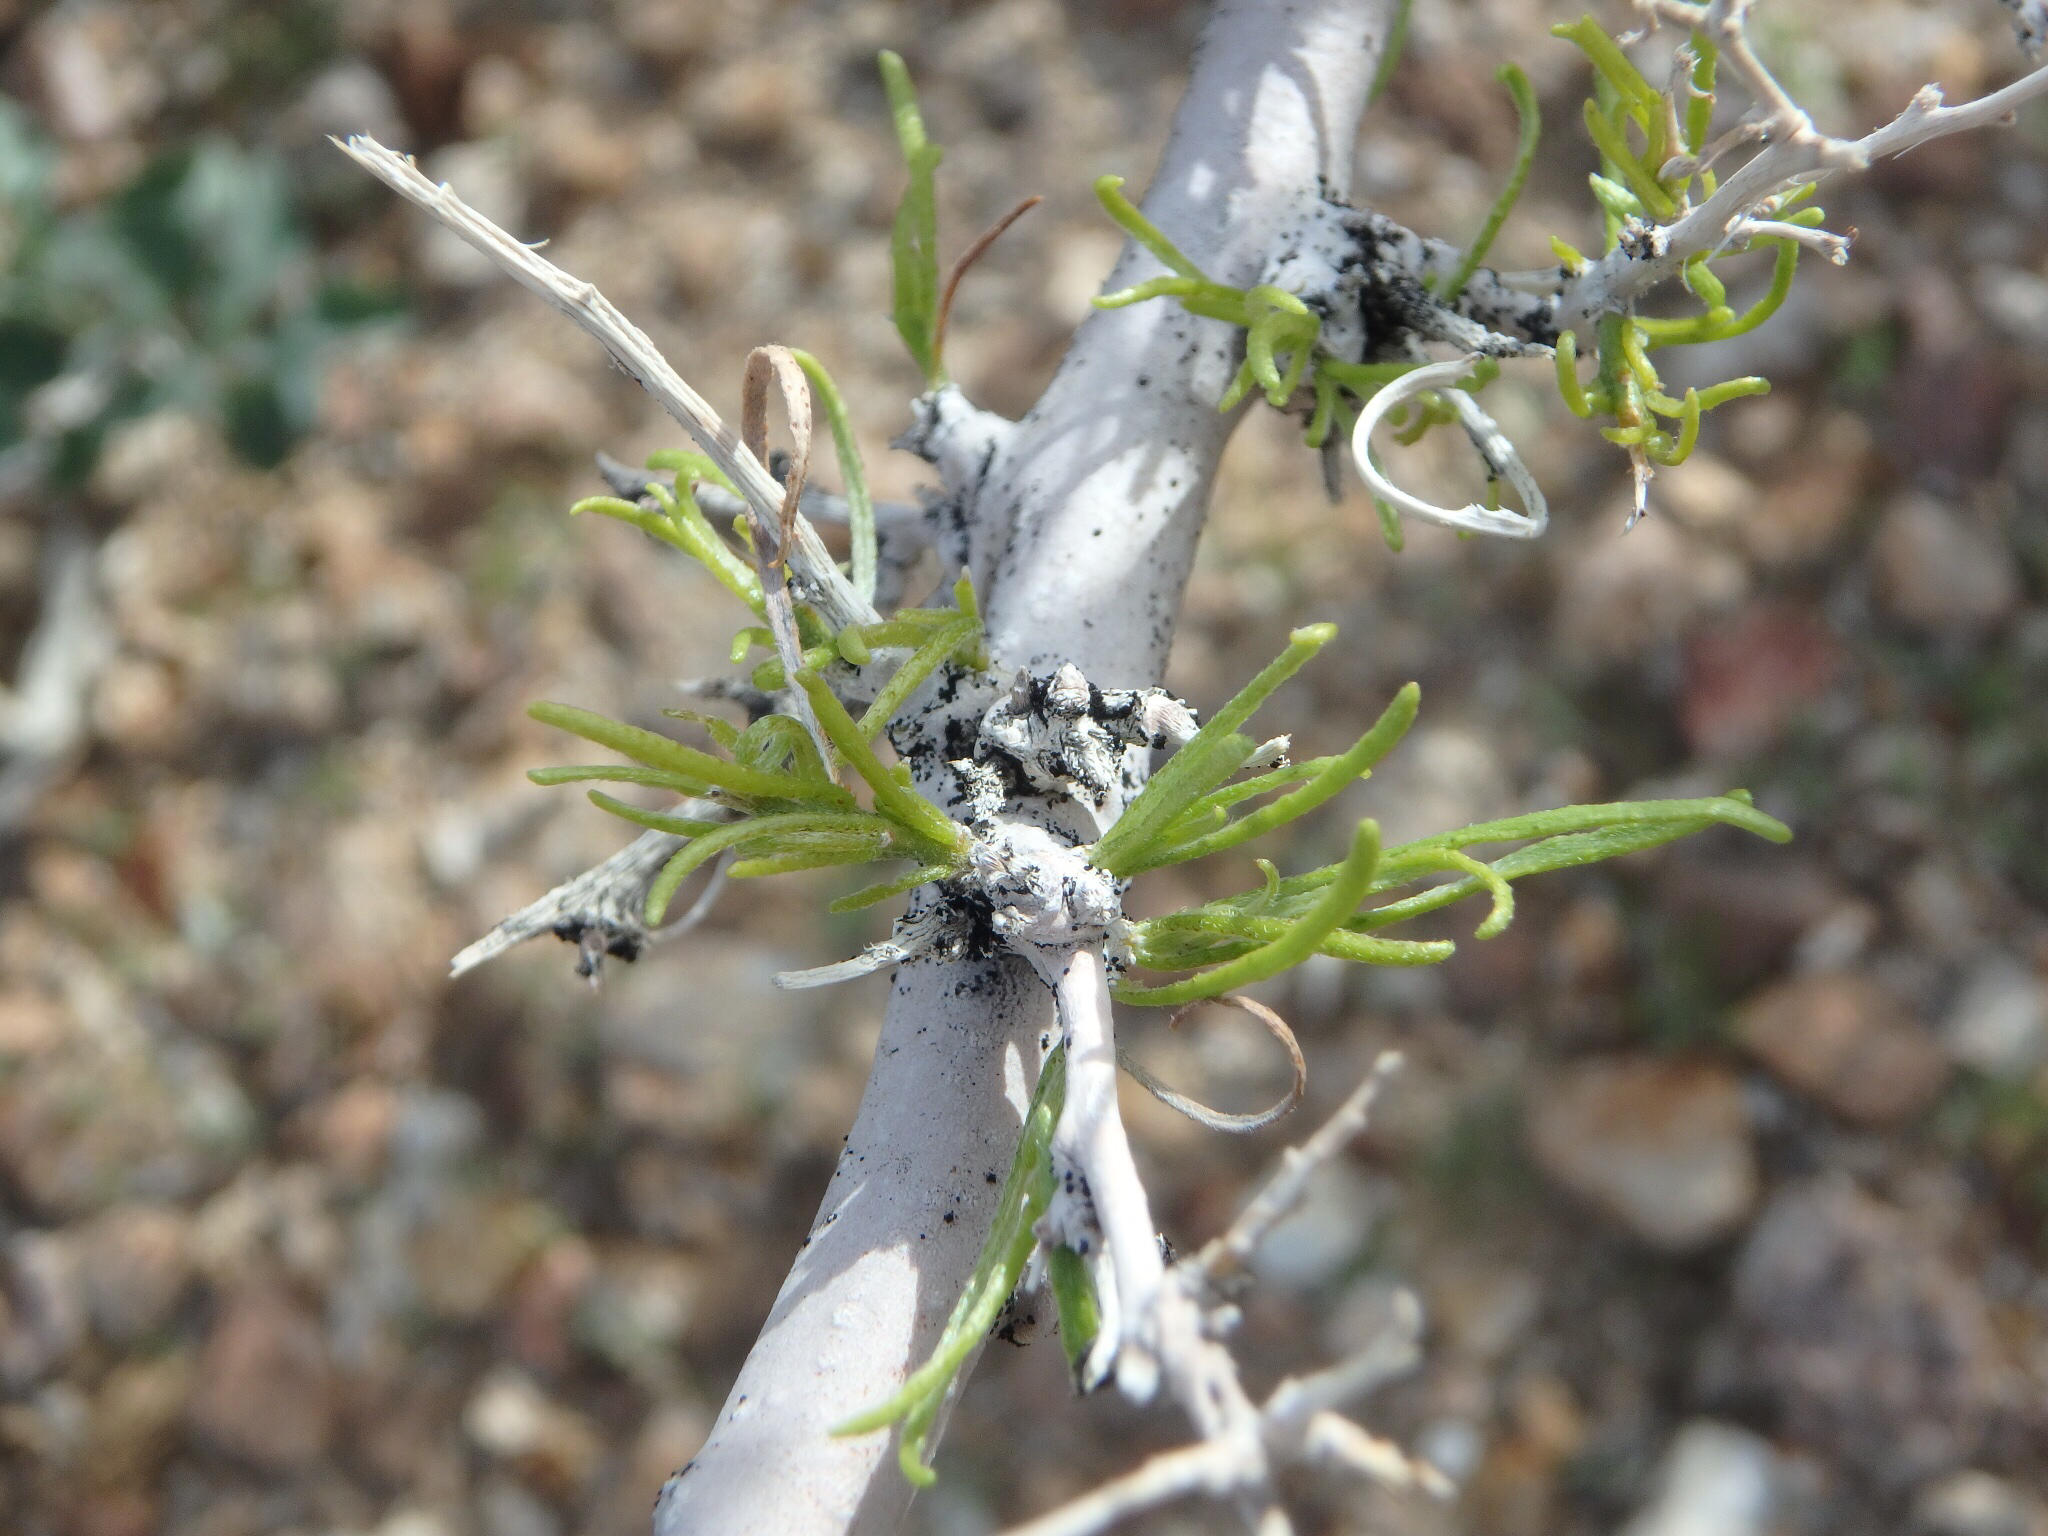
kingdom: Plantae
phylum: Tracheophyta
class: Magnoliopsida
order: Fabales
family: Fabaceae
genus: Psorothamnus
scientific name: Psorothamnus schottii
